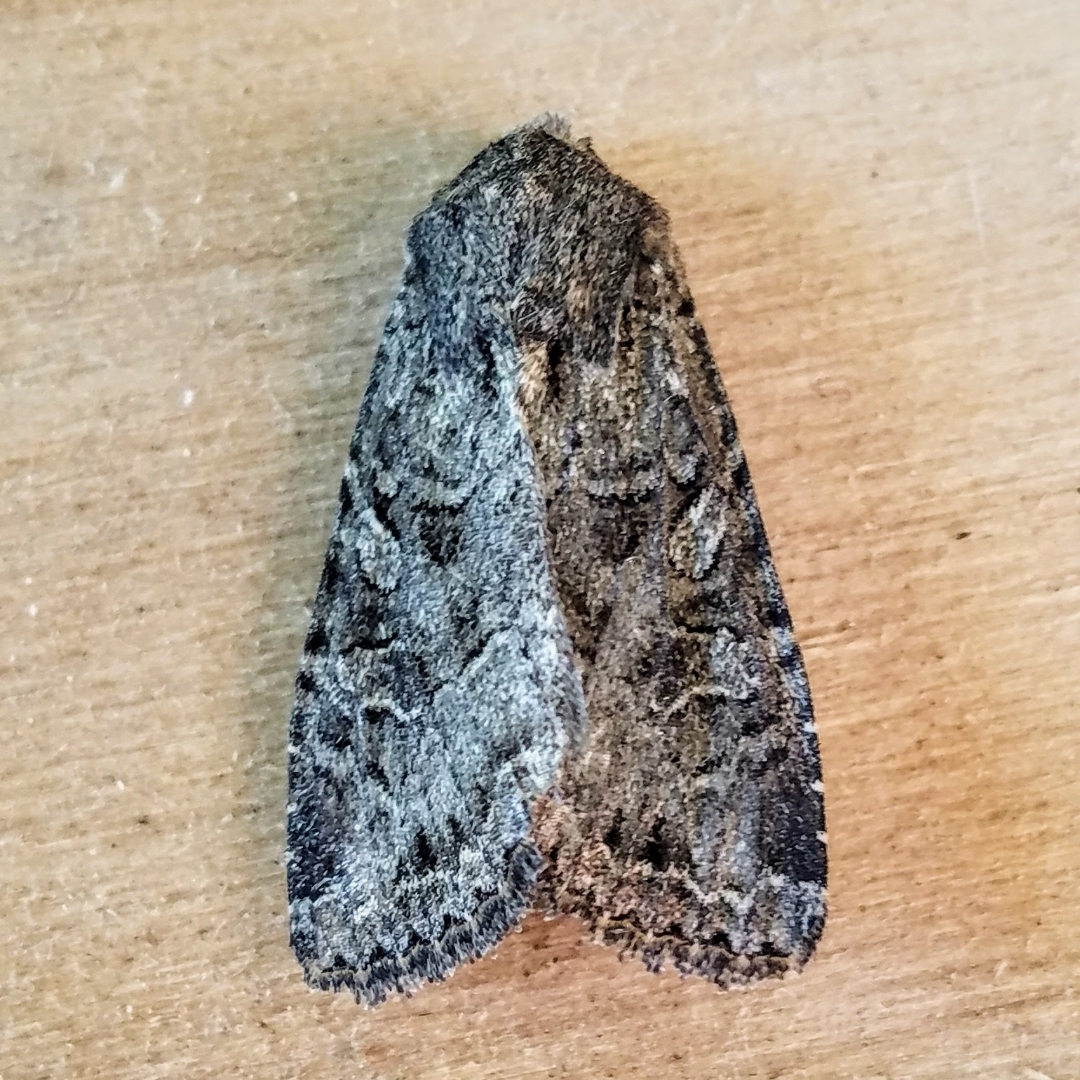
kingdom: Animalia
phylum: Arthropoda
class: Insecta
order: Lepidoptera
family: Noctuidae
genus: Apamea
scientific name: Apamea devastator
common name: Glassy cutworm
